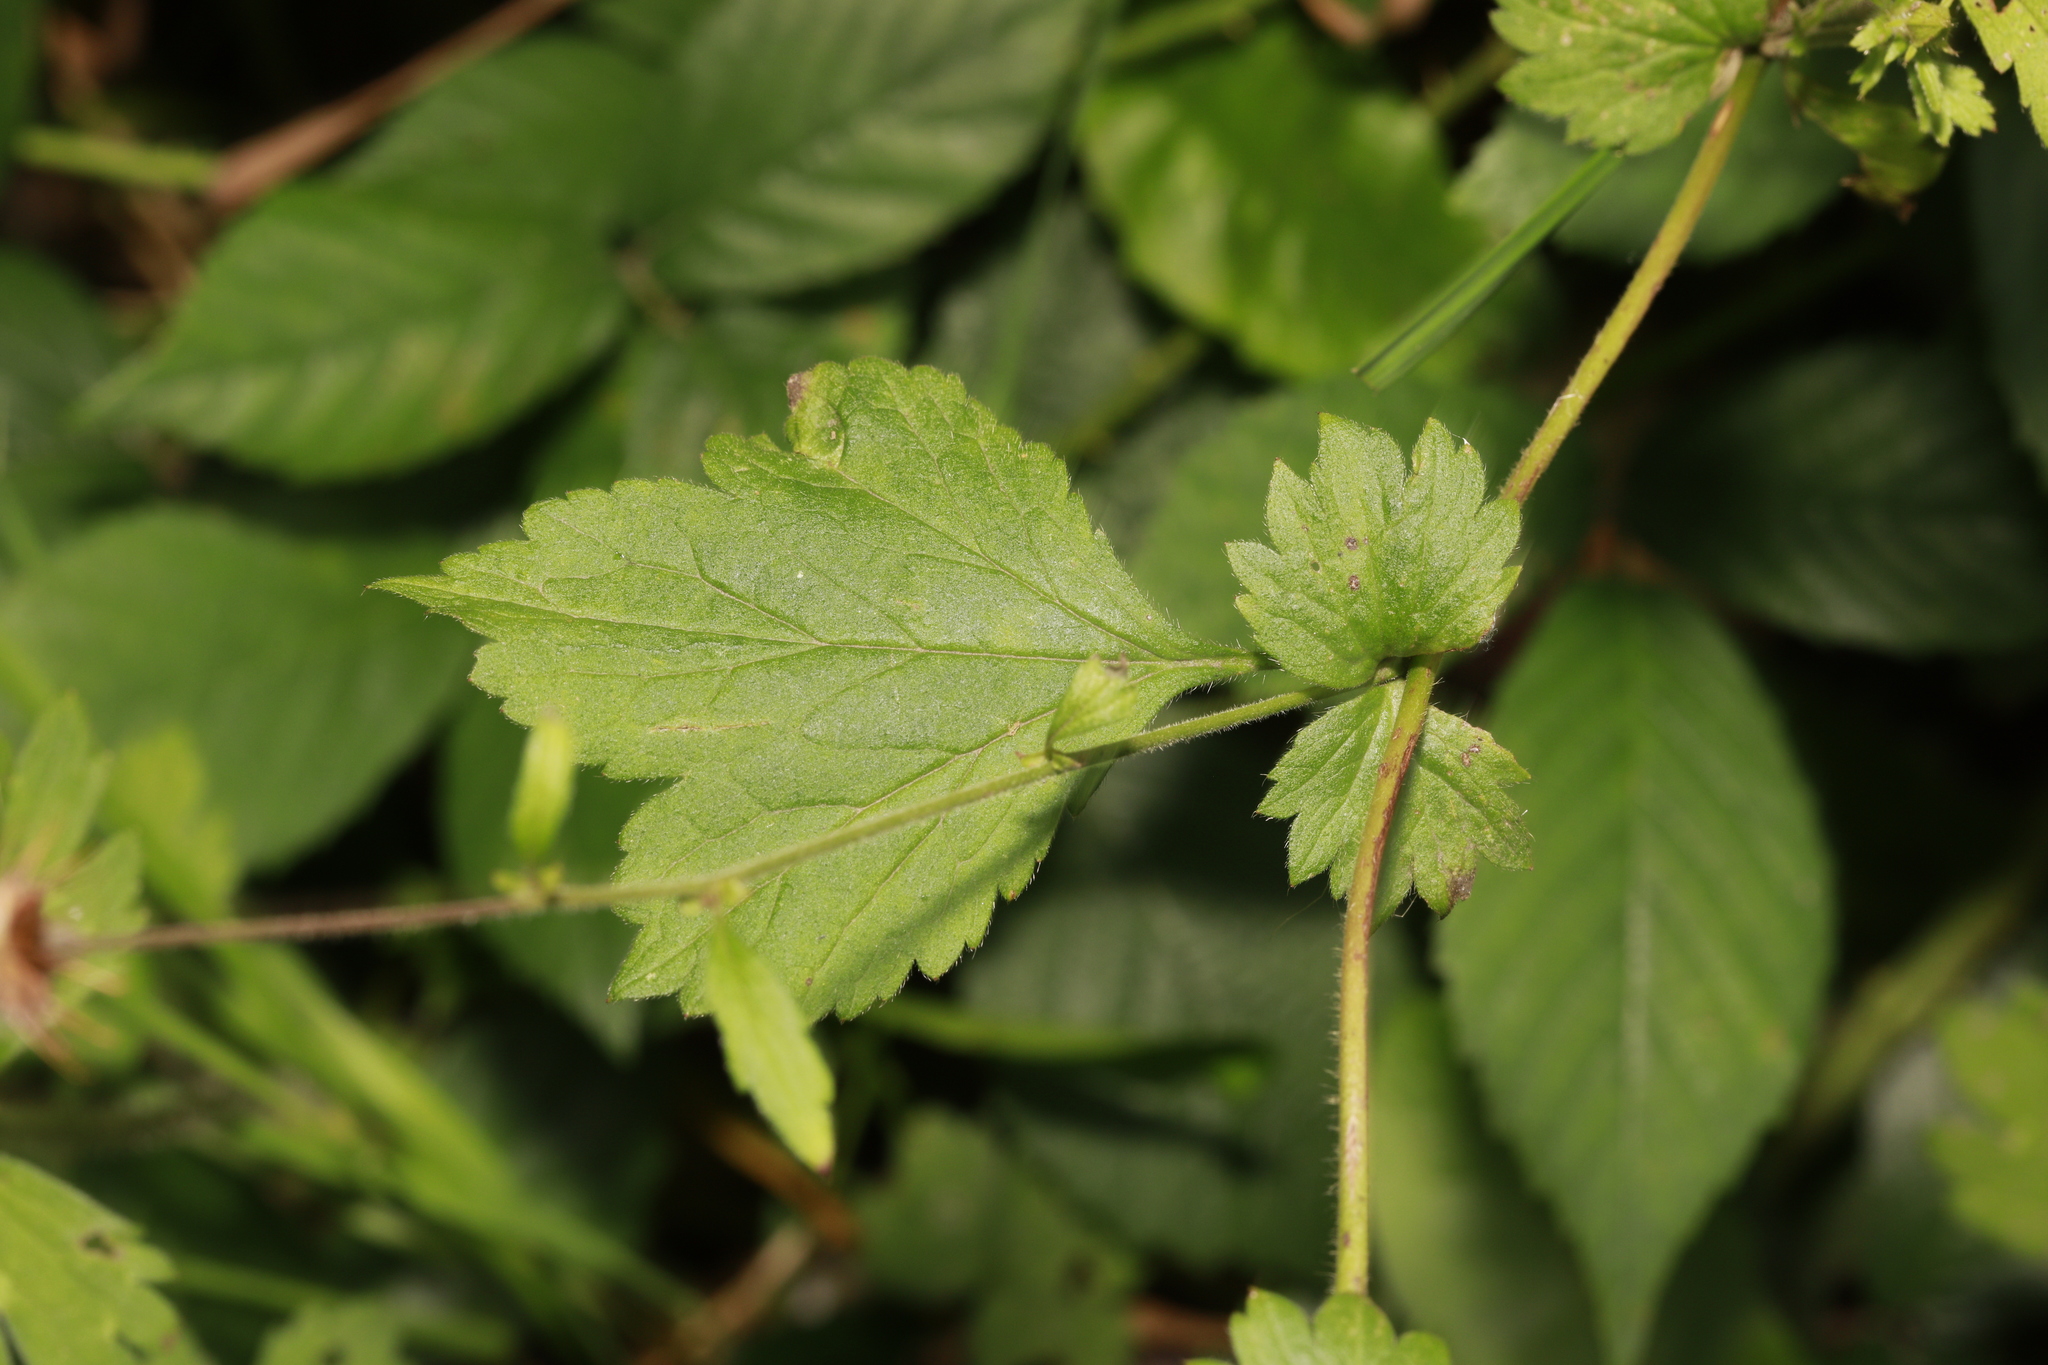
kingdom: Plantae
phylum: Tracheophyta
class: Magnoliopsida
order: Rosales
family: Rosaceae
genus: Geum
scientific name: Geum urbanum
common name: Wood avens
